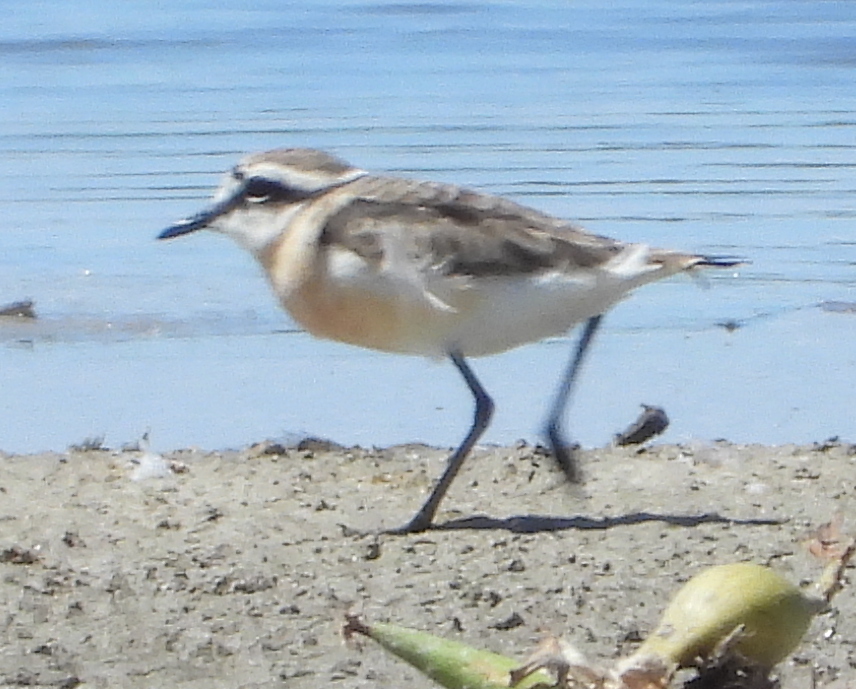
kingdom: Animalia
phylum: Chordata
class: Aves
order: Charadriiformes
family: Charadriidae
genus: Anarhynchus
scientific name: Anarhynchus
